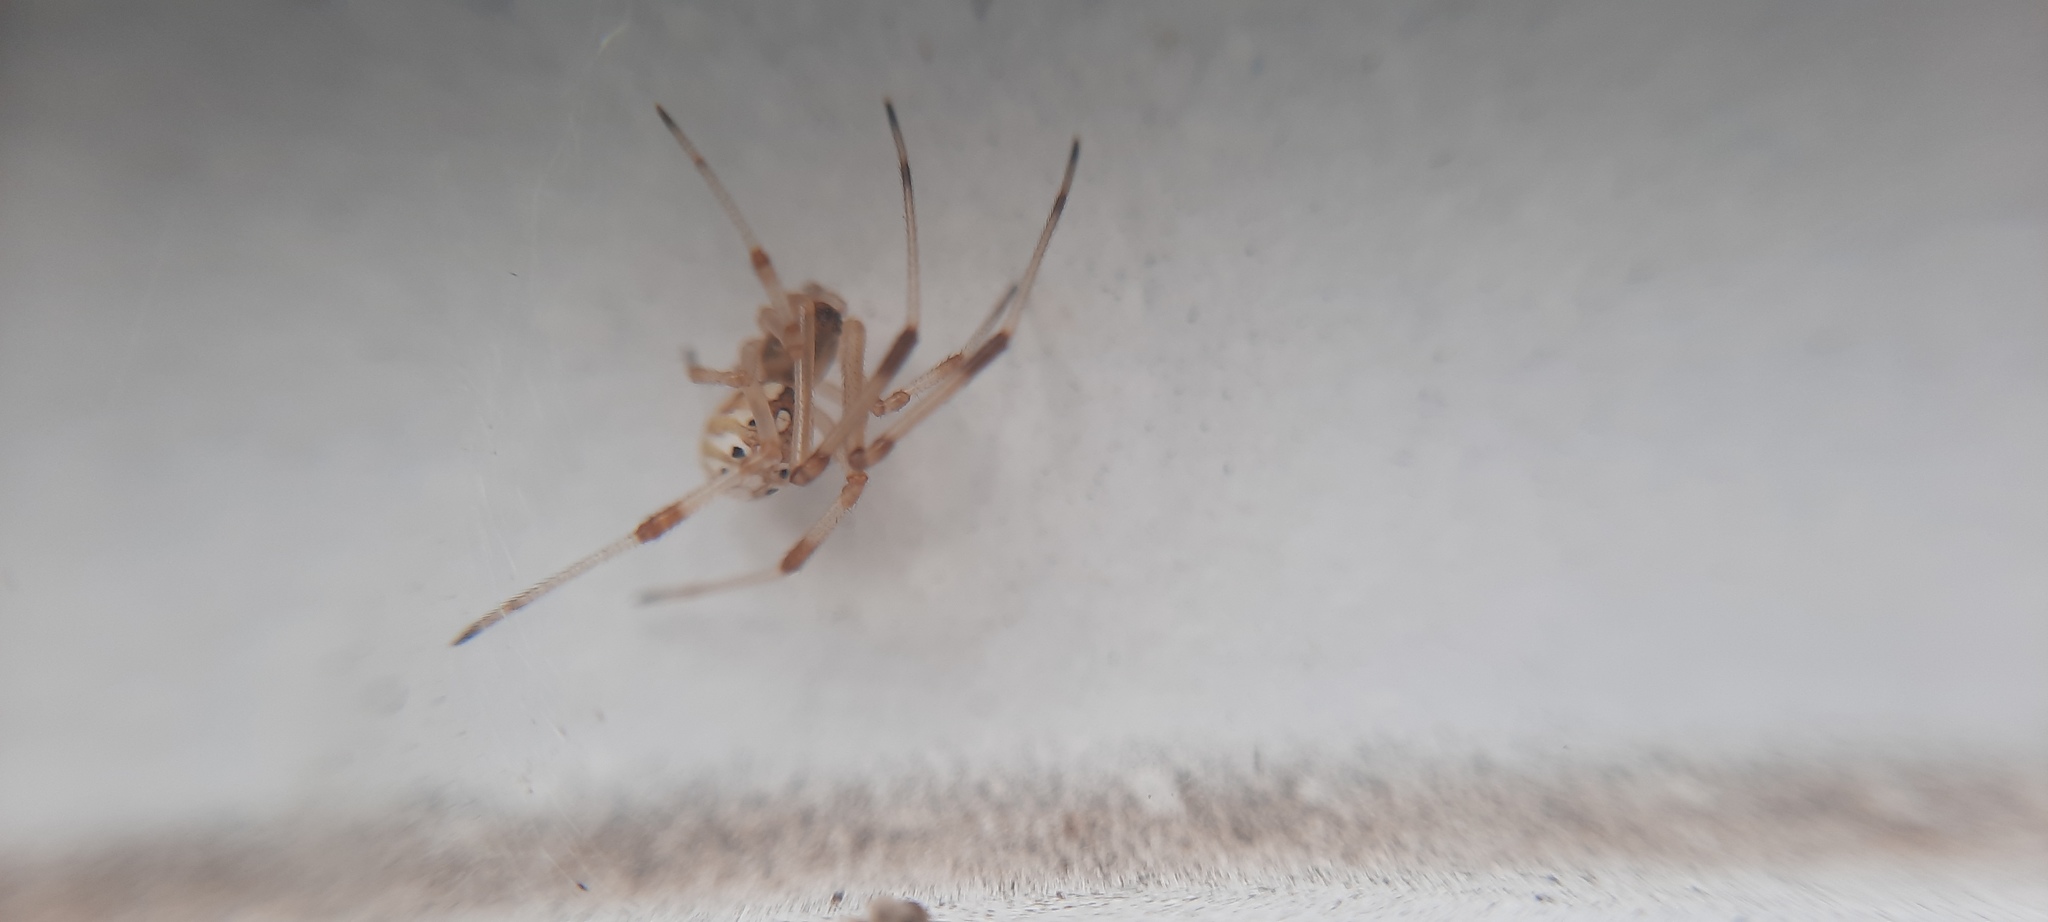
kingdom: Animalia
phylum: Arthropoda
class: Arachnida
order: Araneae
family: Theridiidae
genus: Latrodectus
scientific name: Latrodectus geometricus
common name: Brown widow spider
